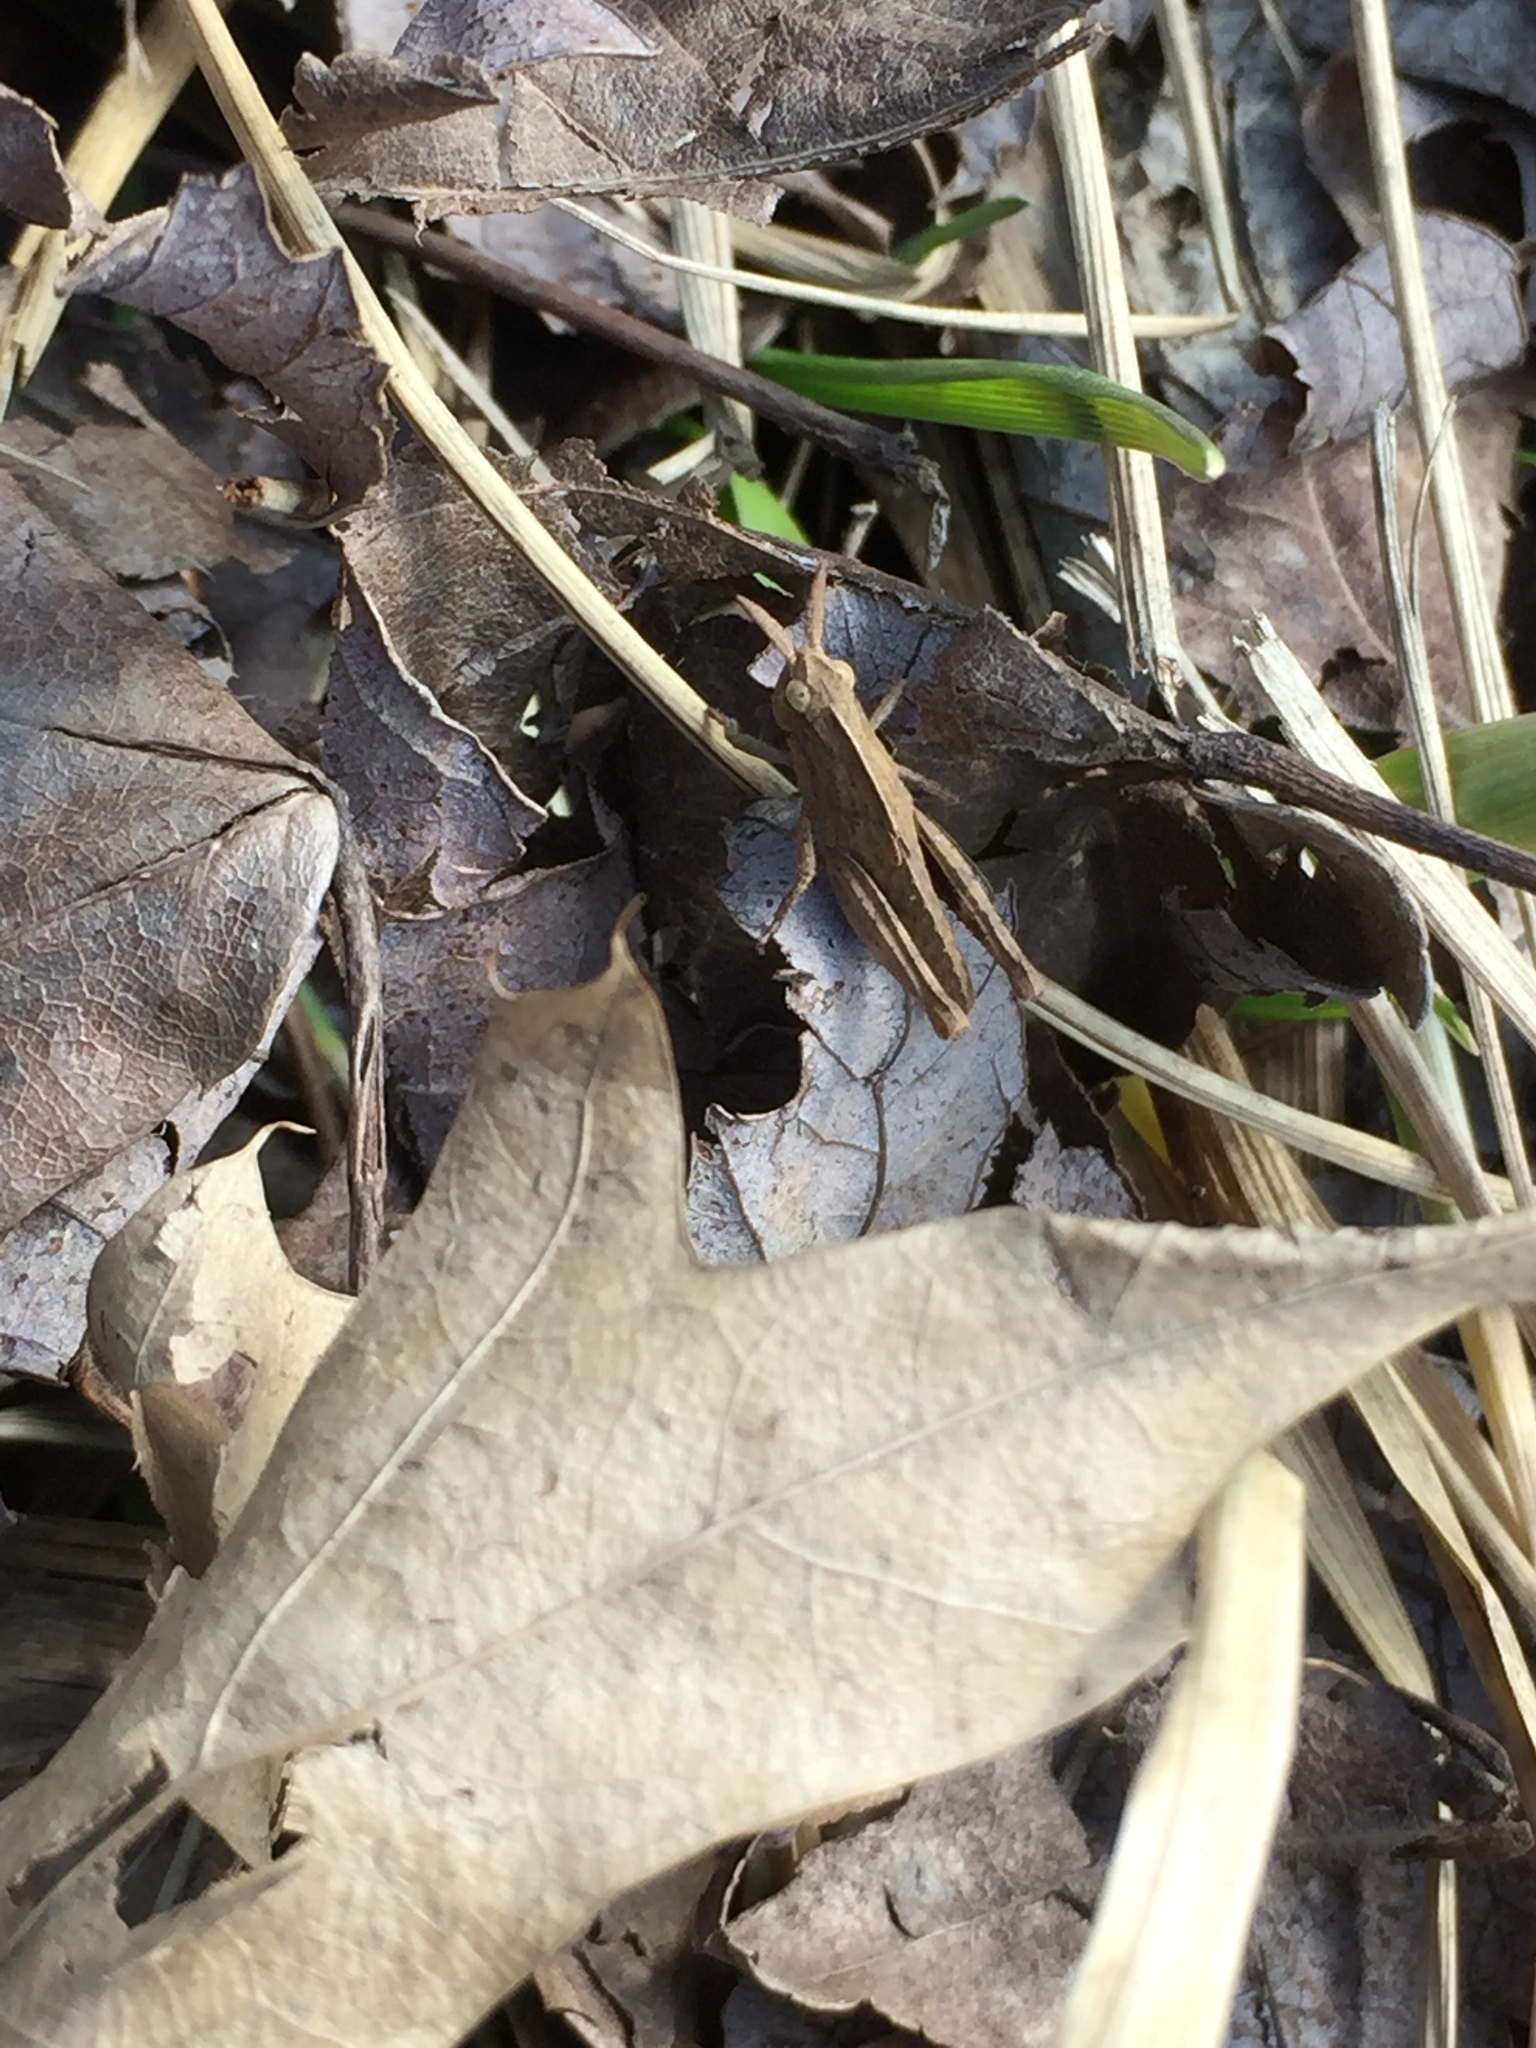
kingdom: Animalia
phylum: Arthropoda
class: Insecta
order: Orthoptera
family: Acrididae
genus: Chortophaga
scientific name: Chortophaga viridifasciata
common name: Green-striped grasshopper
